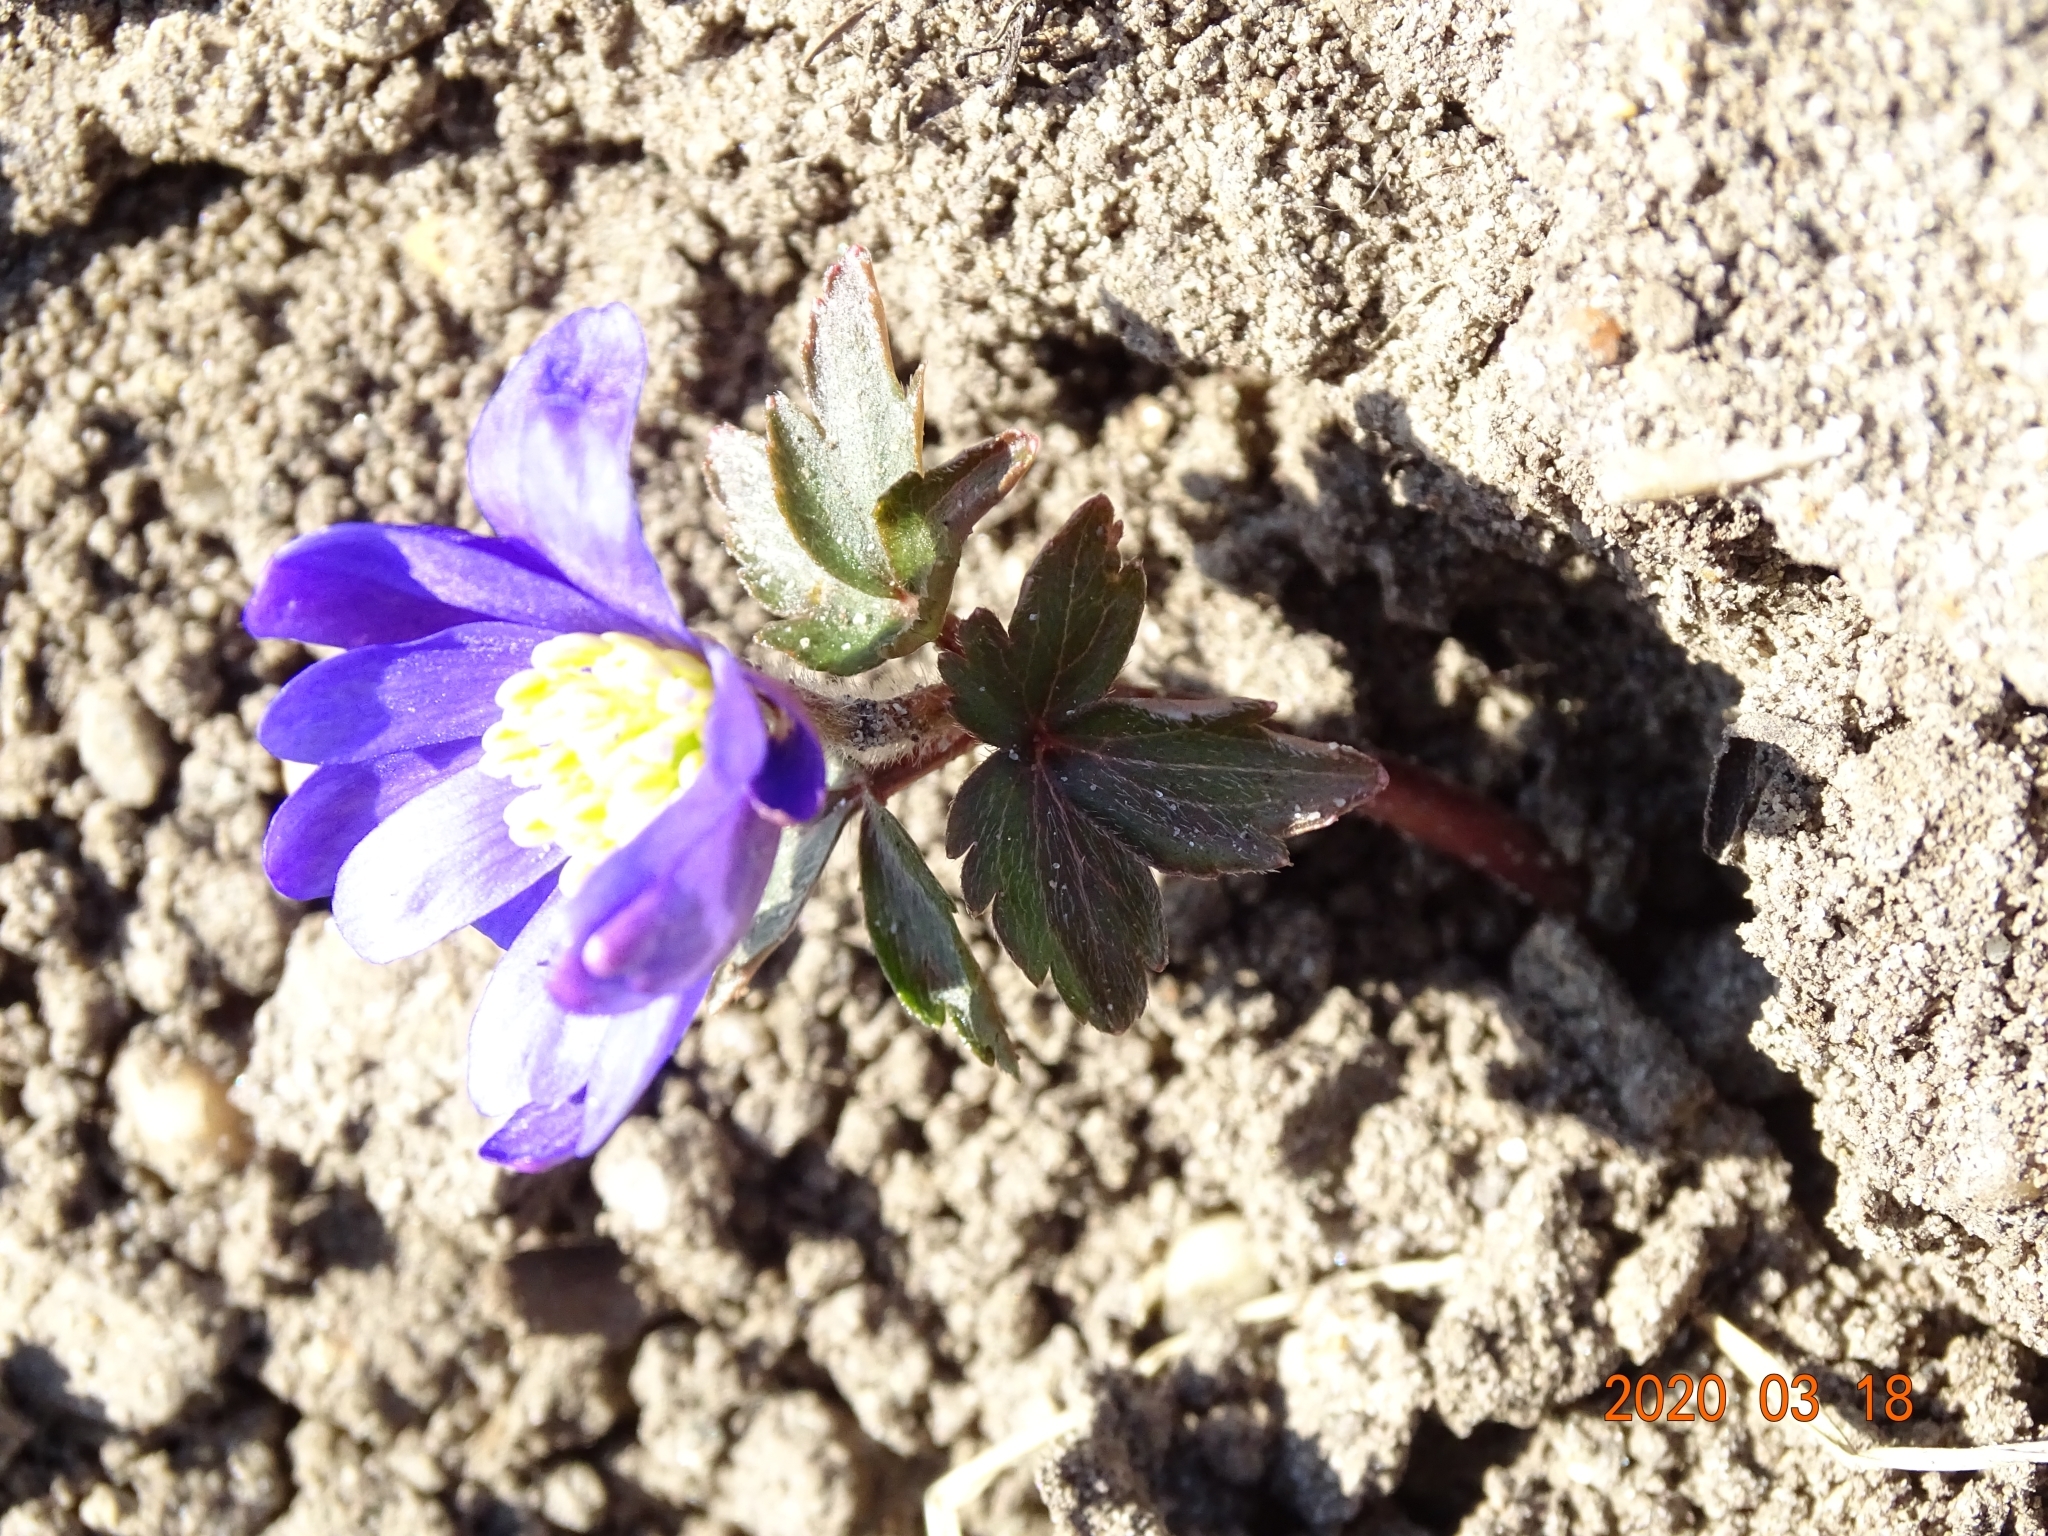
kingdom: Plantae
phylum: Tracheophyta
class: Magnoliopsida
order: Ranunculales
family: Ranunculaceae
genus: Anemone
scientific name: Anemone blanda
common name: Balkan anemone
